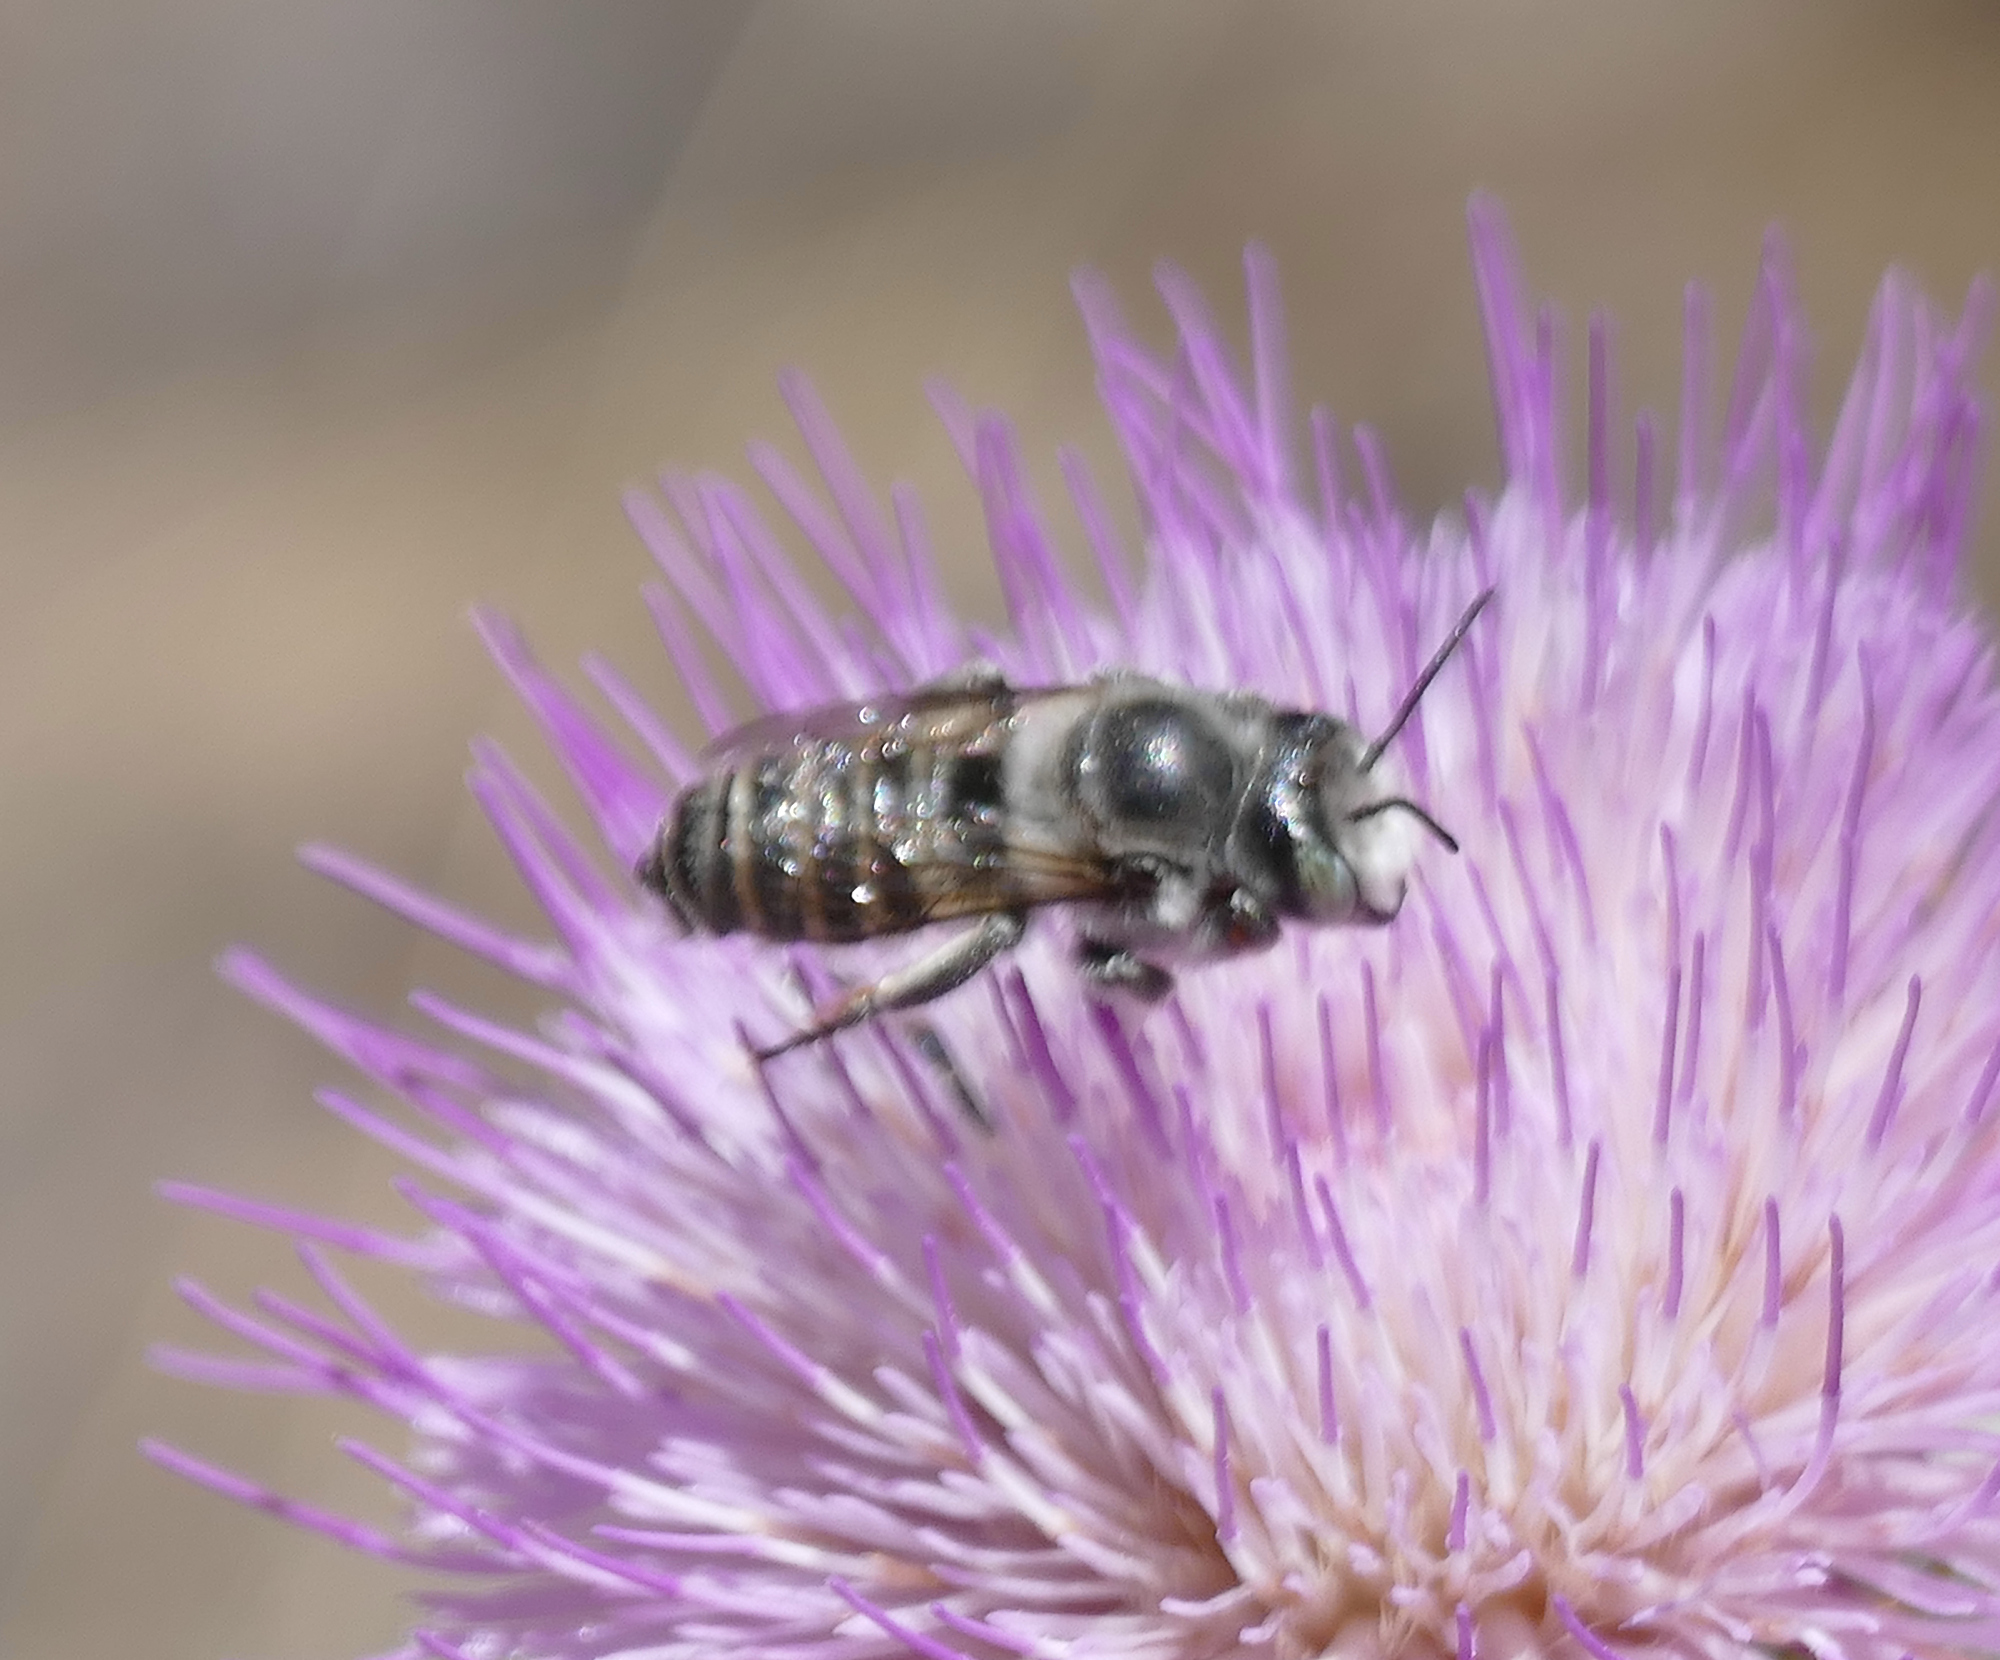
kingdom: Animalia
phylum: Arthropoda
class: Insecta
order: Hymenoptera
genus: Megachiloides
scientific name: Megachiloides
